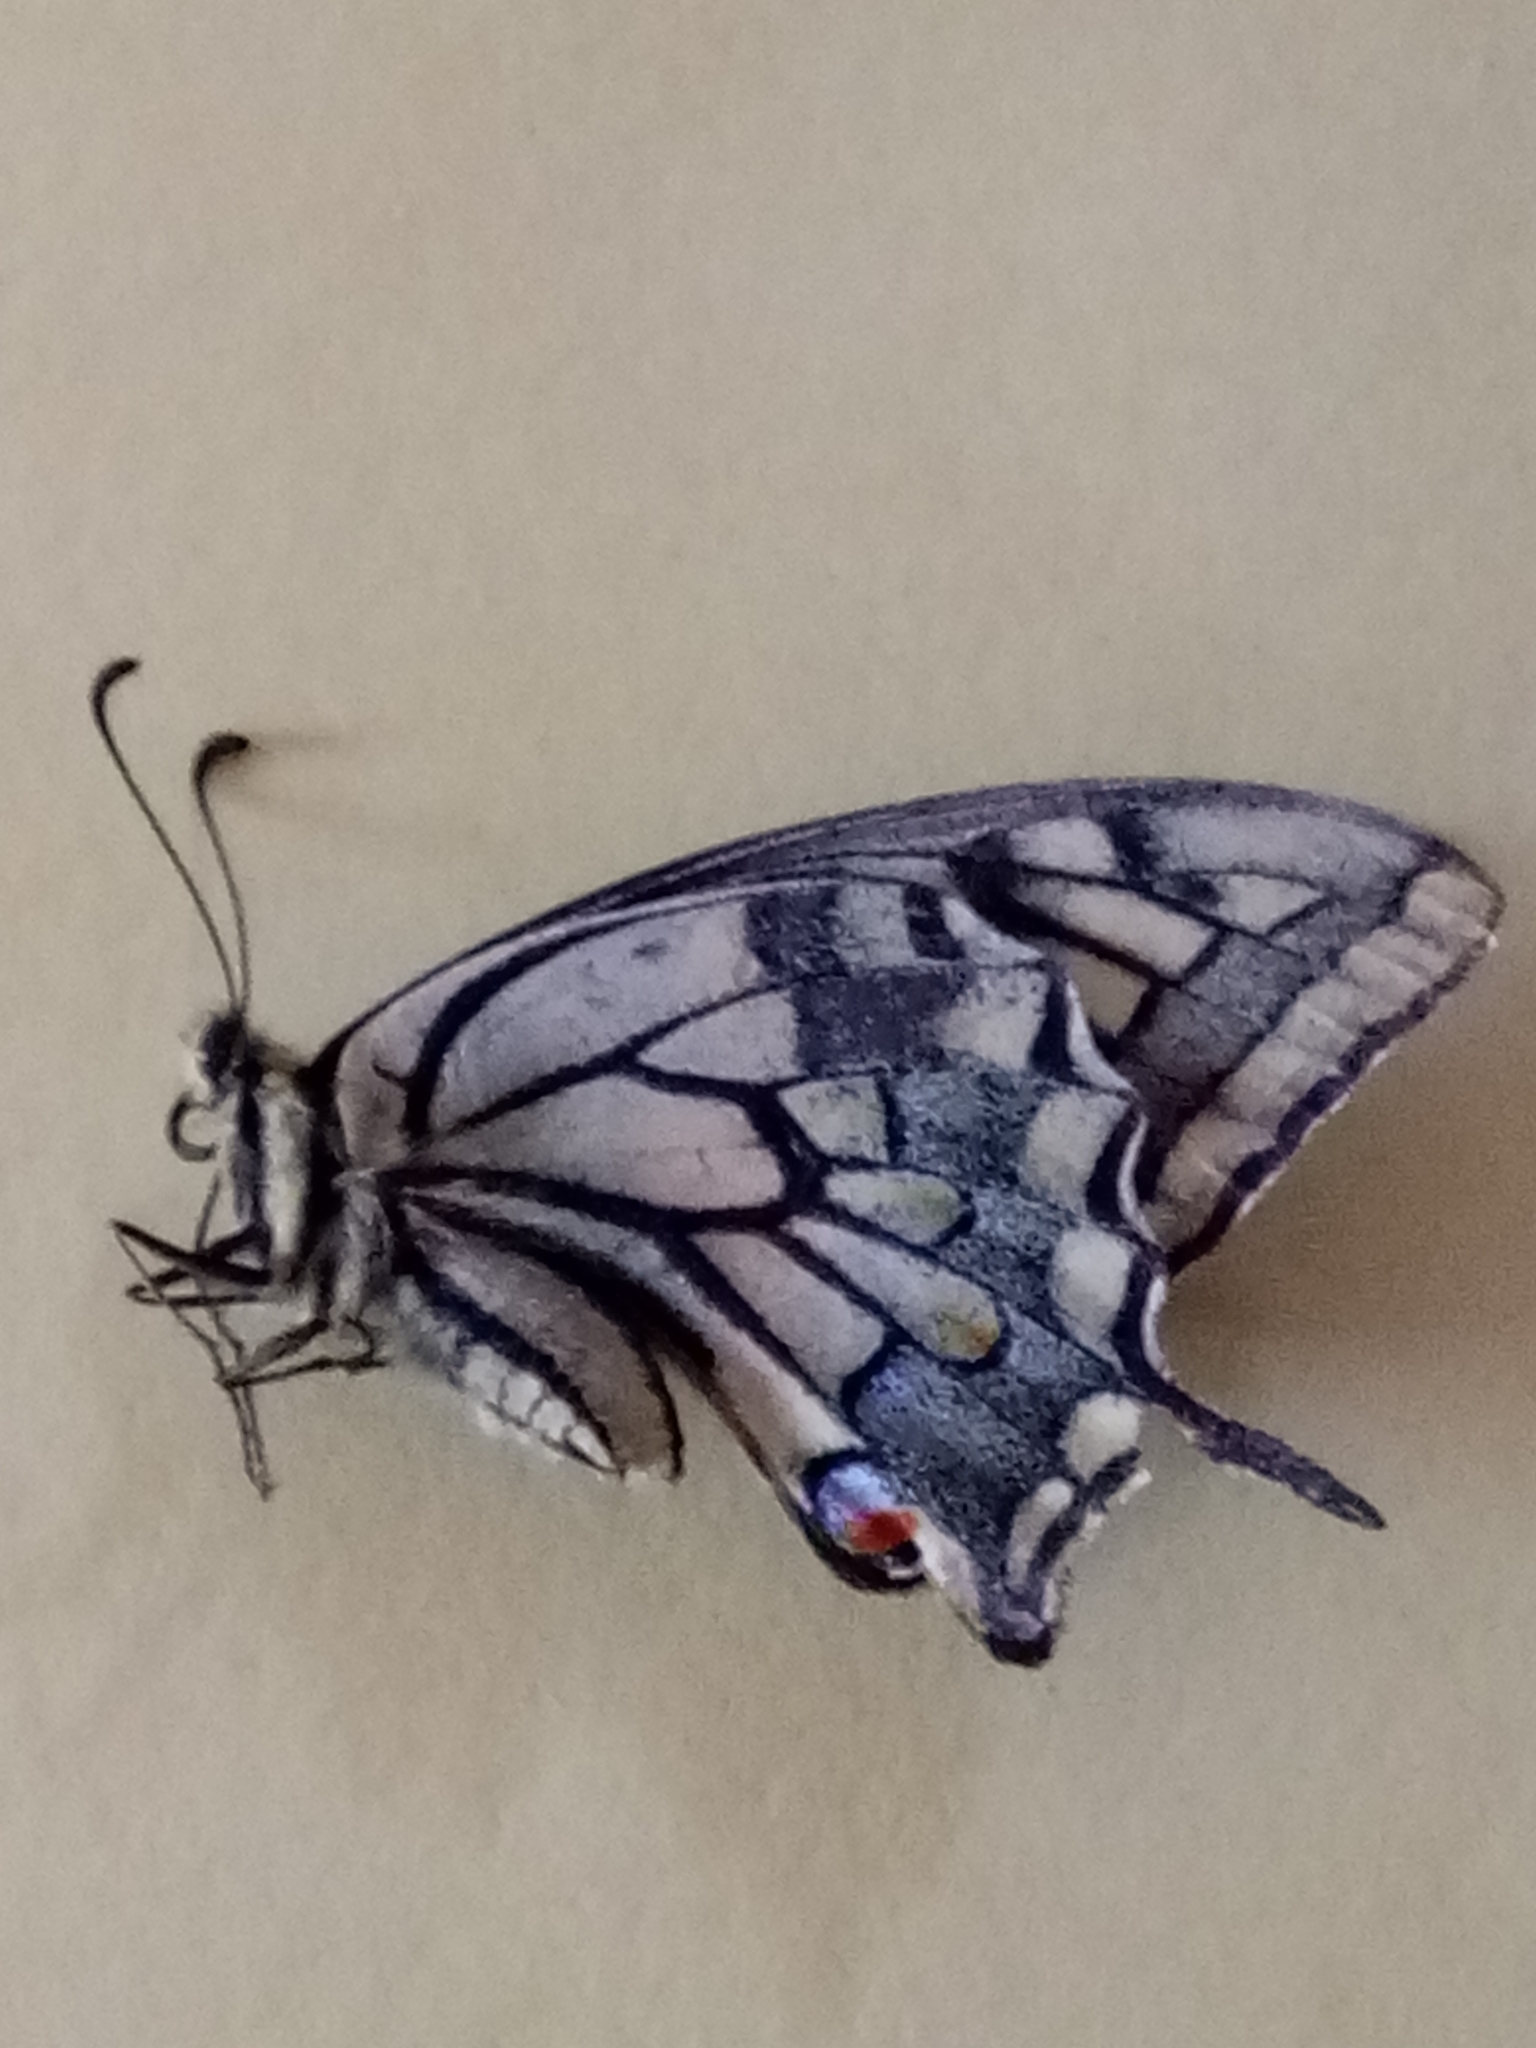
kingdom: Animalia
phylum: Arthropoda
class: Insecta
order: Lepidoptera
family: Papilionidae
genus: Papilio
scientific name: Papilio machaon
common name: Swallowtail
